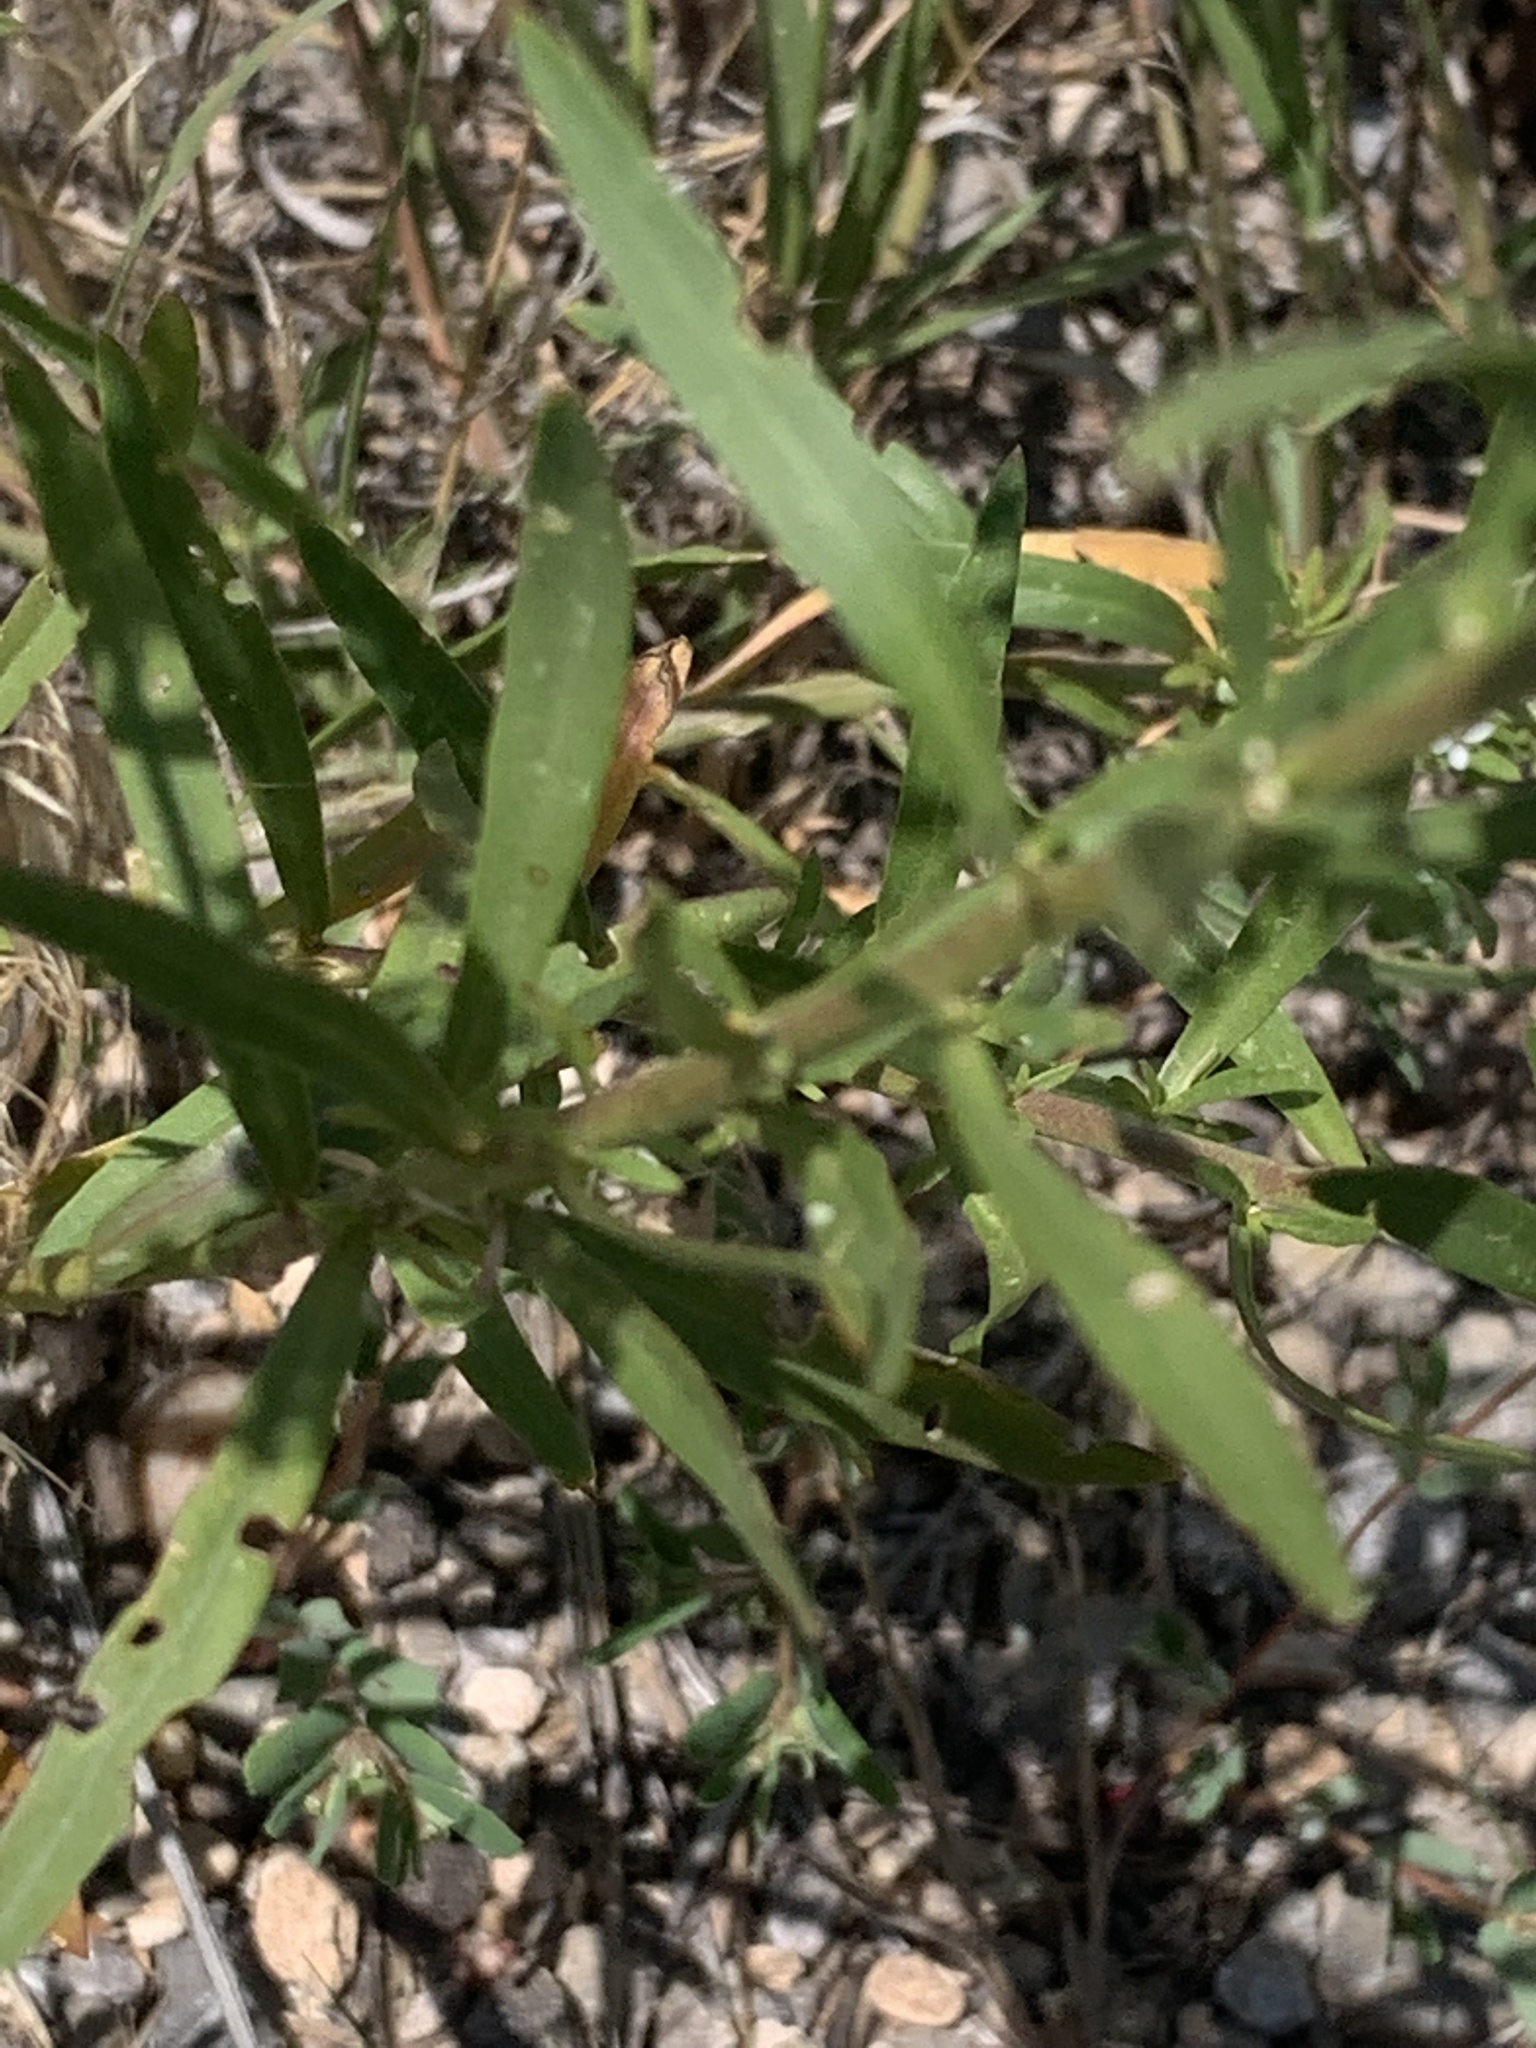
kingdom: Plantae
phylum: Tracheophyta
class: Magnoliopsida
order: Brassicales
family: Brassicaceae
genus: Lepidium
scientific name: Lepidium eastwoodiae
